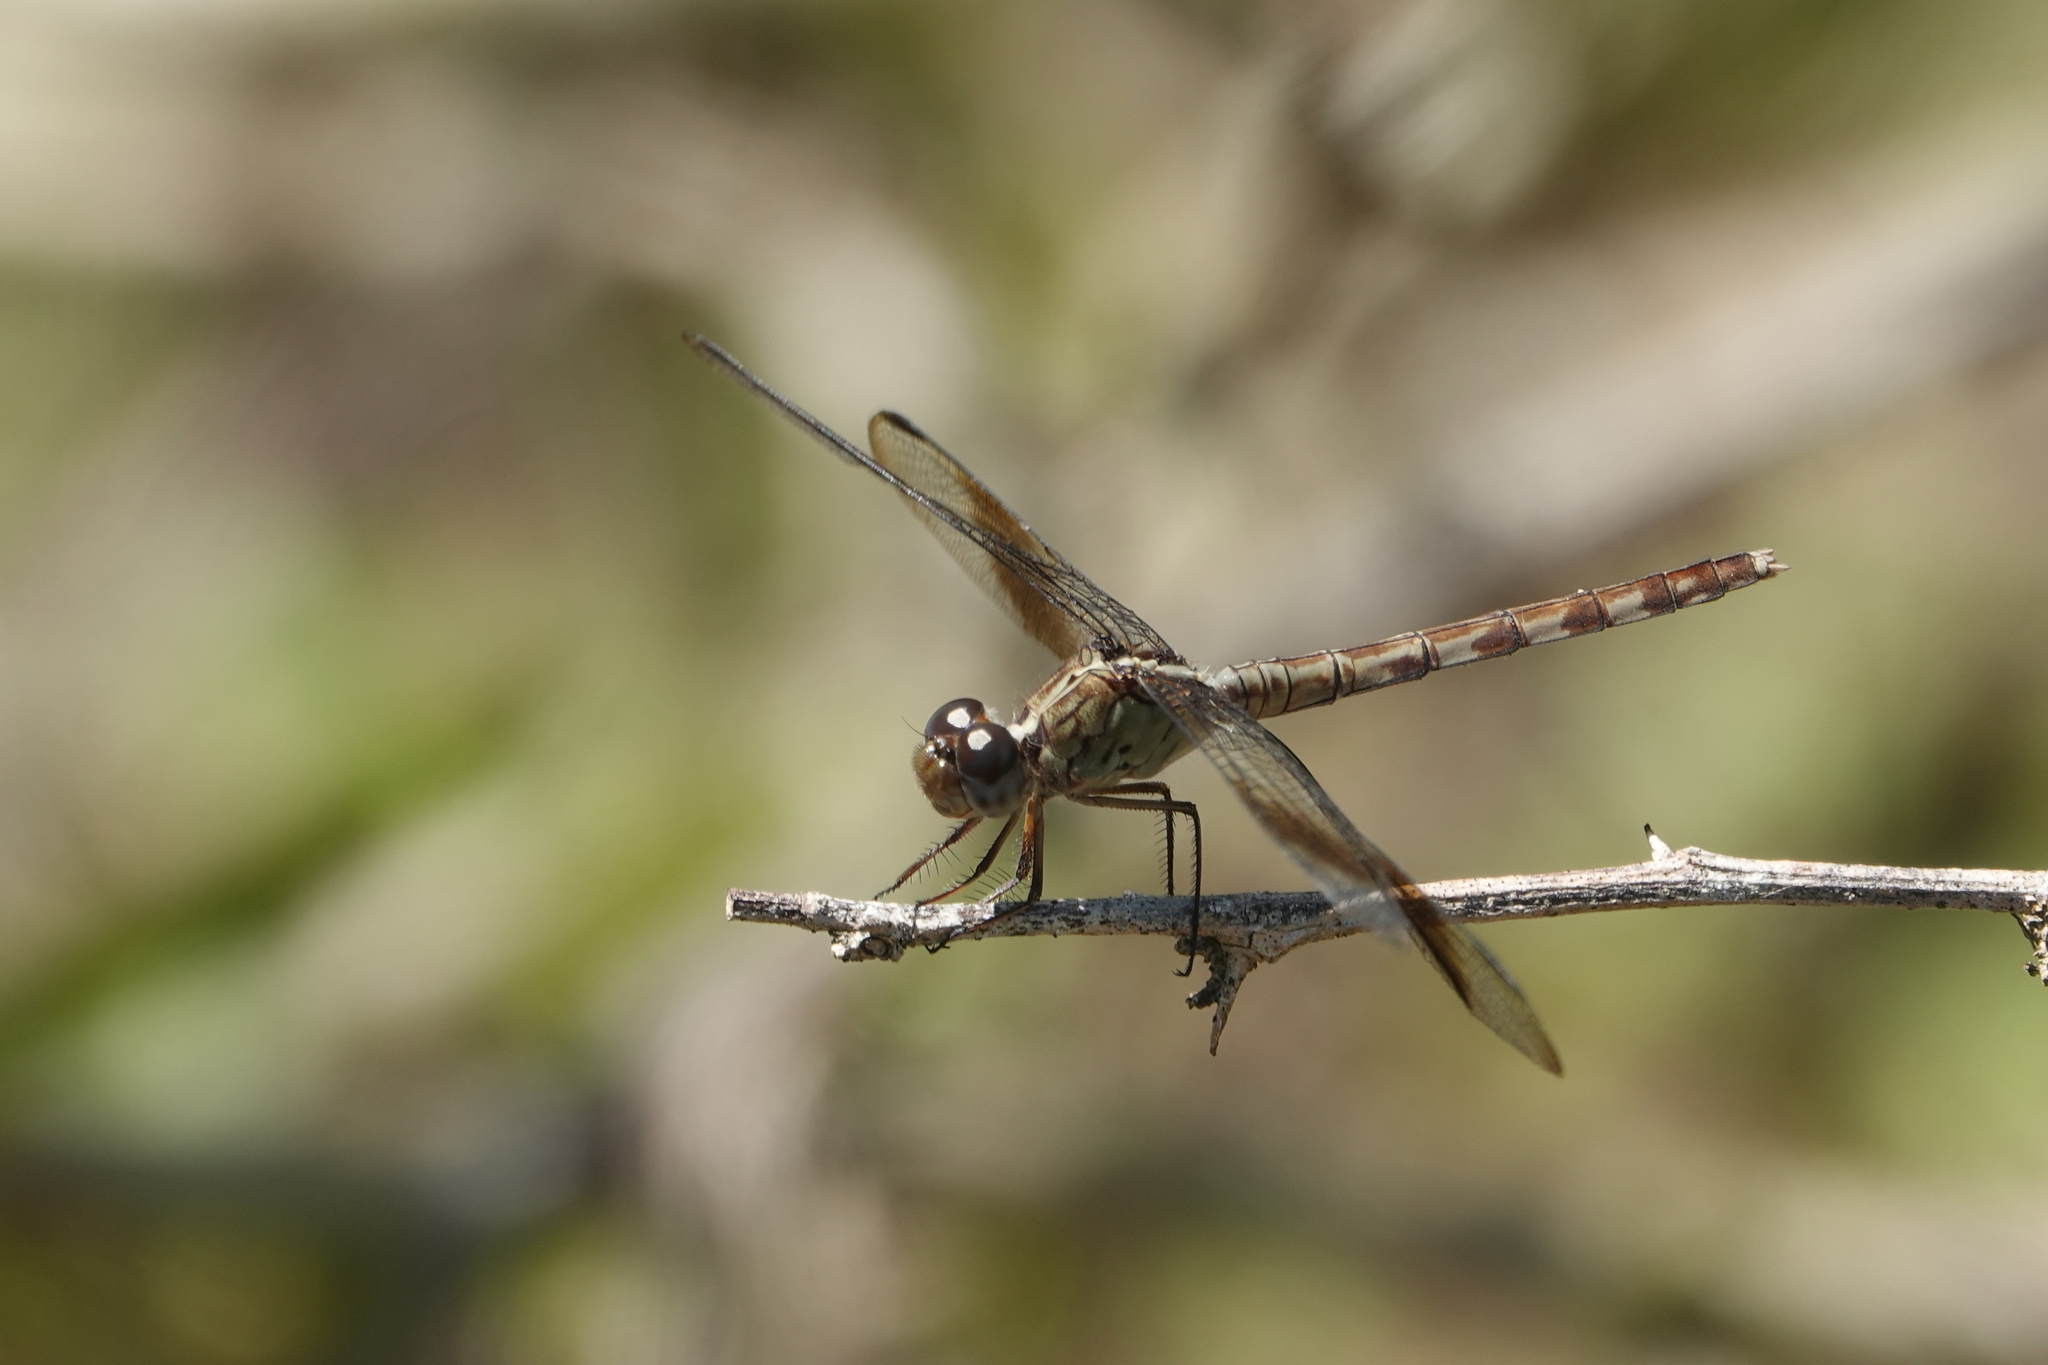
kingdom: Animalia
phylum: Arthropoda
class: Insecta
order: Odonata
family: Libellulidae
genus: Erythrodiplax
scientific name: Erythrodiplax umbrata
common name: Band-winged dragonlet
